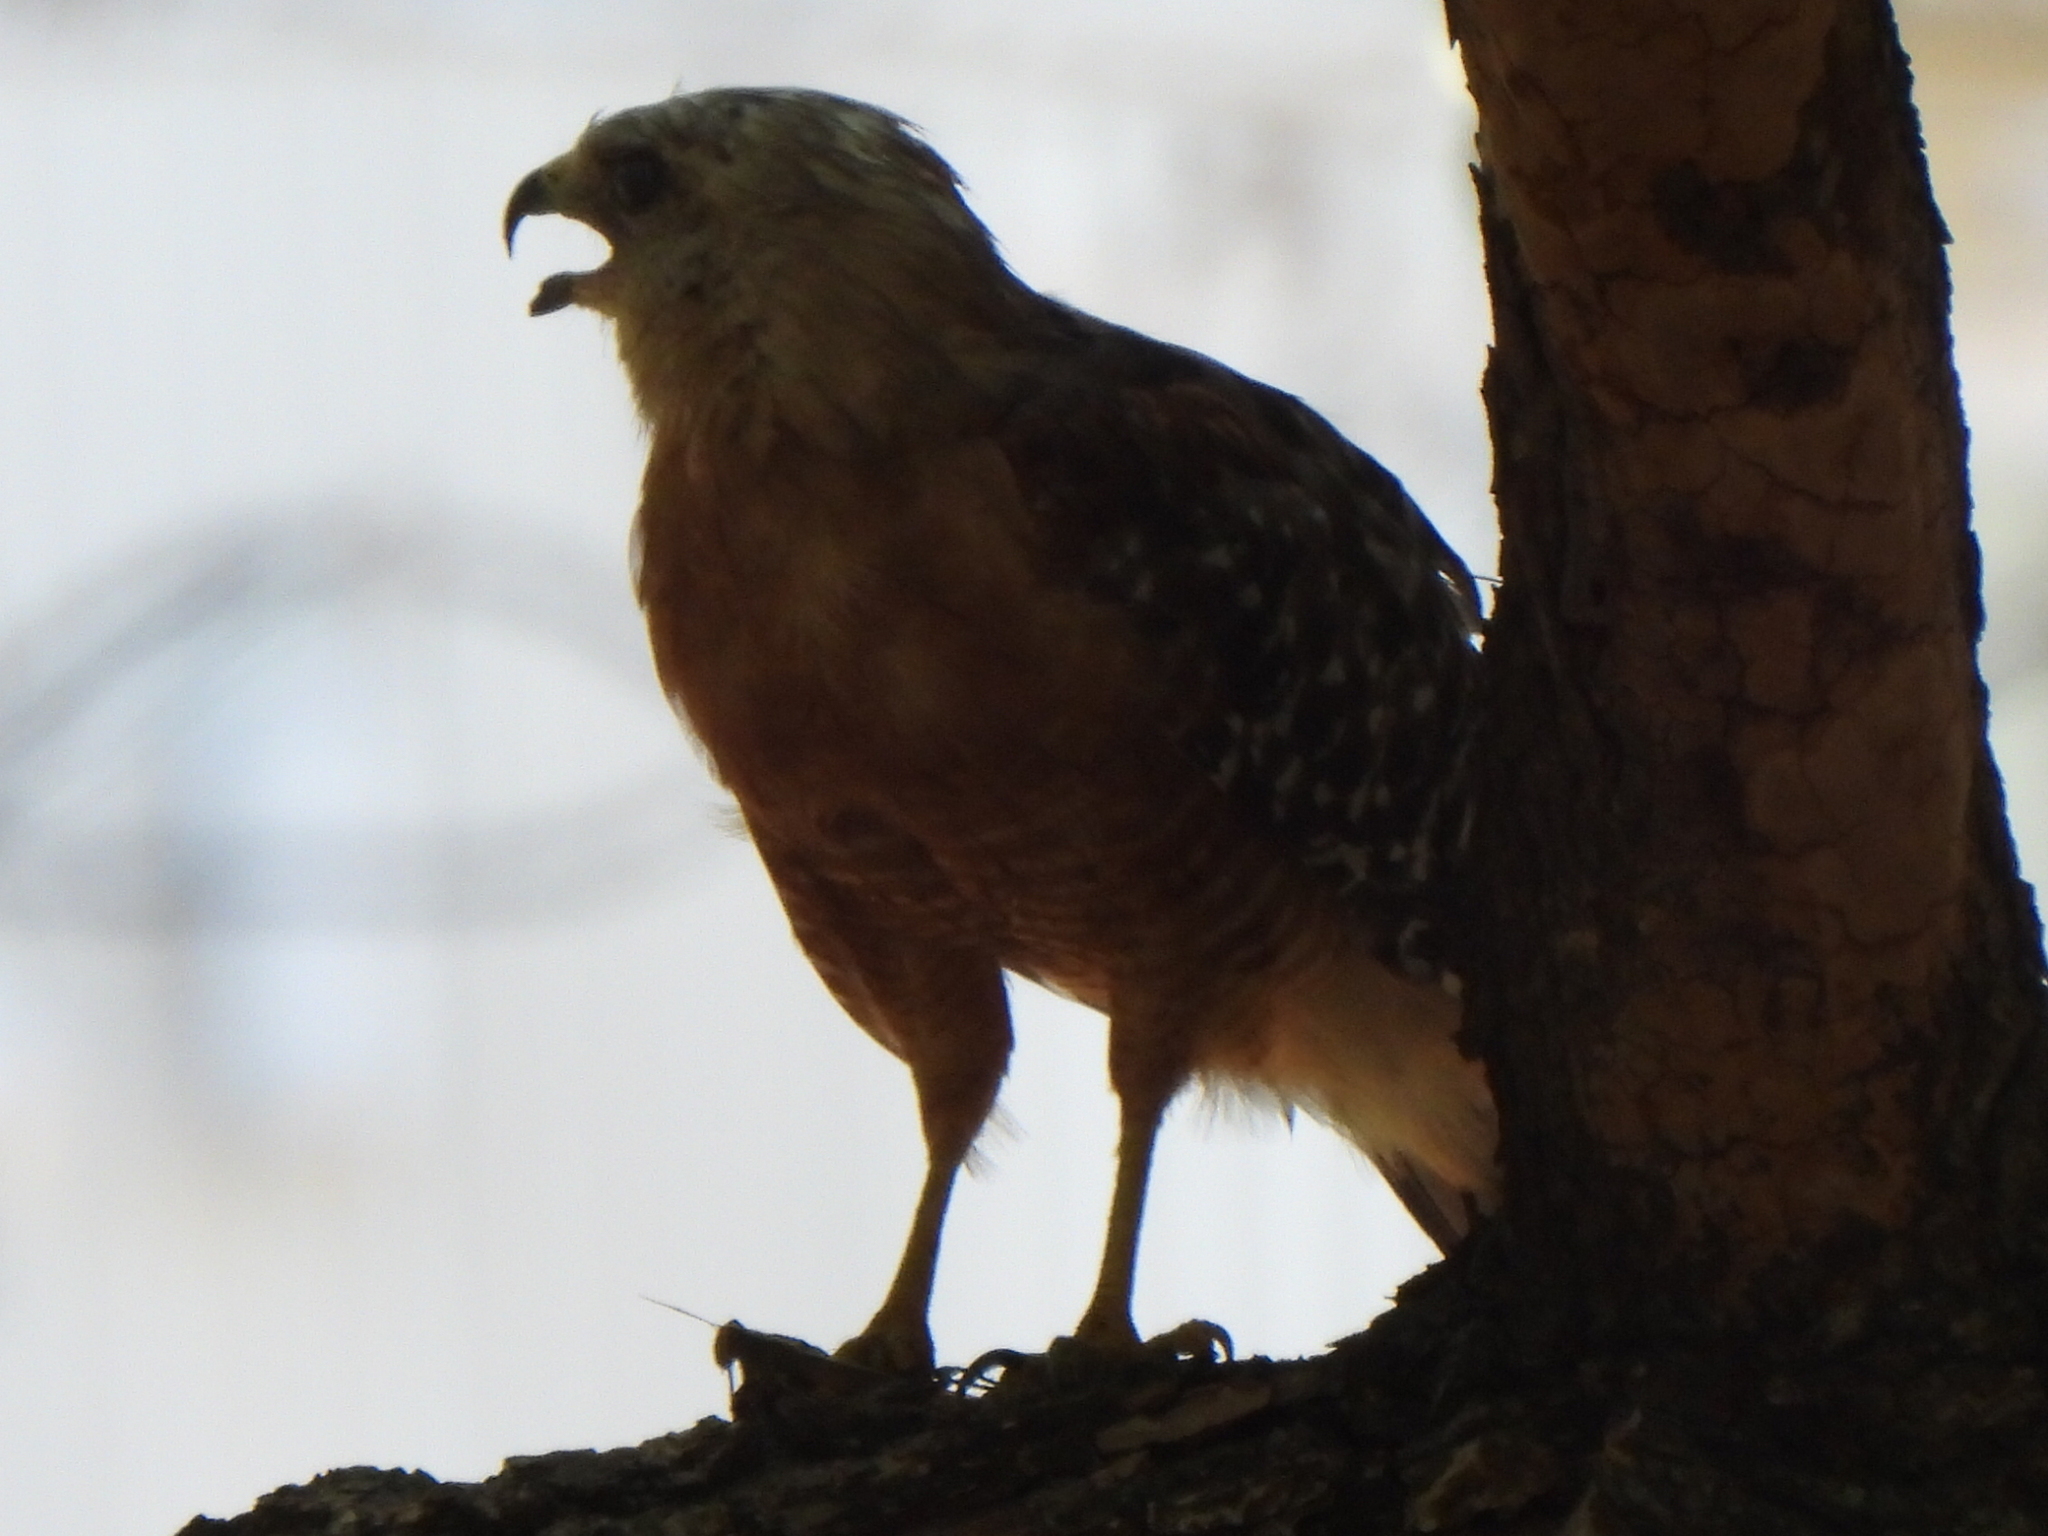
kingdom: Animalia
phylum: Chordata
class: Aves
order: Accipitriformes
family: Accipitridae
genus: Buteo
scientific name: Buteo lineatus
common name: Red-shouldered hawk
